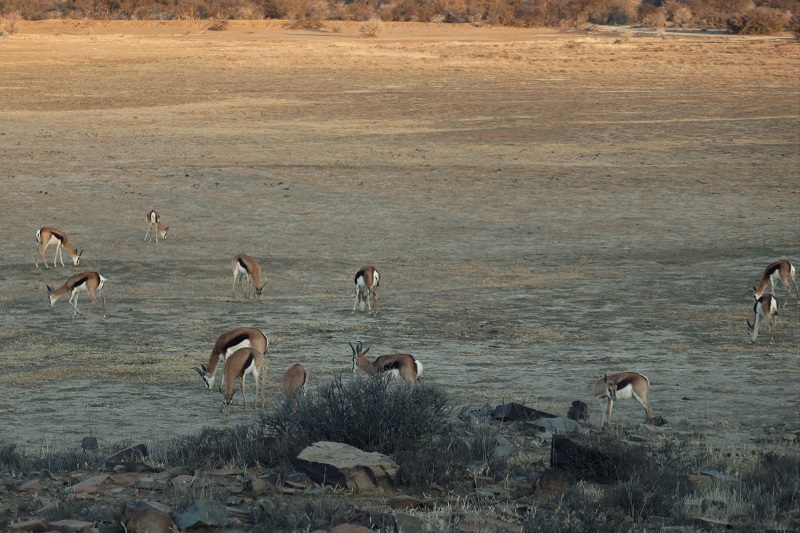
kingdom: Animalia
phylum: Chordata
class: Mammalia
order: Artiodactyla
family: Bovidae
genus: Antidorcas
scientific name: Antidorcas marsupialis
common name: Springbok
